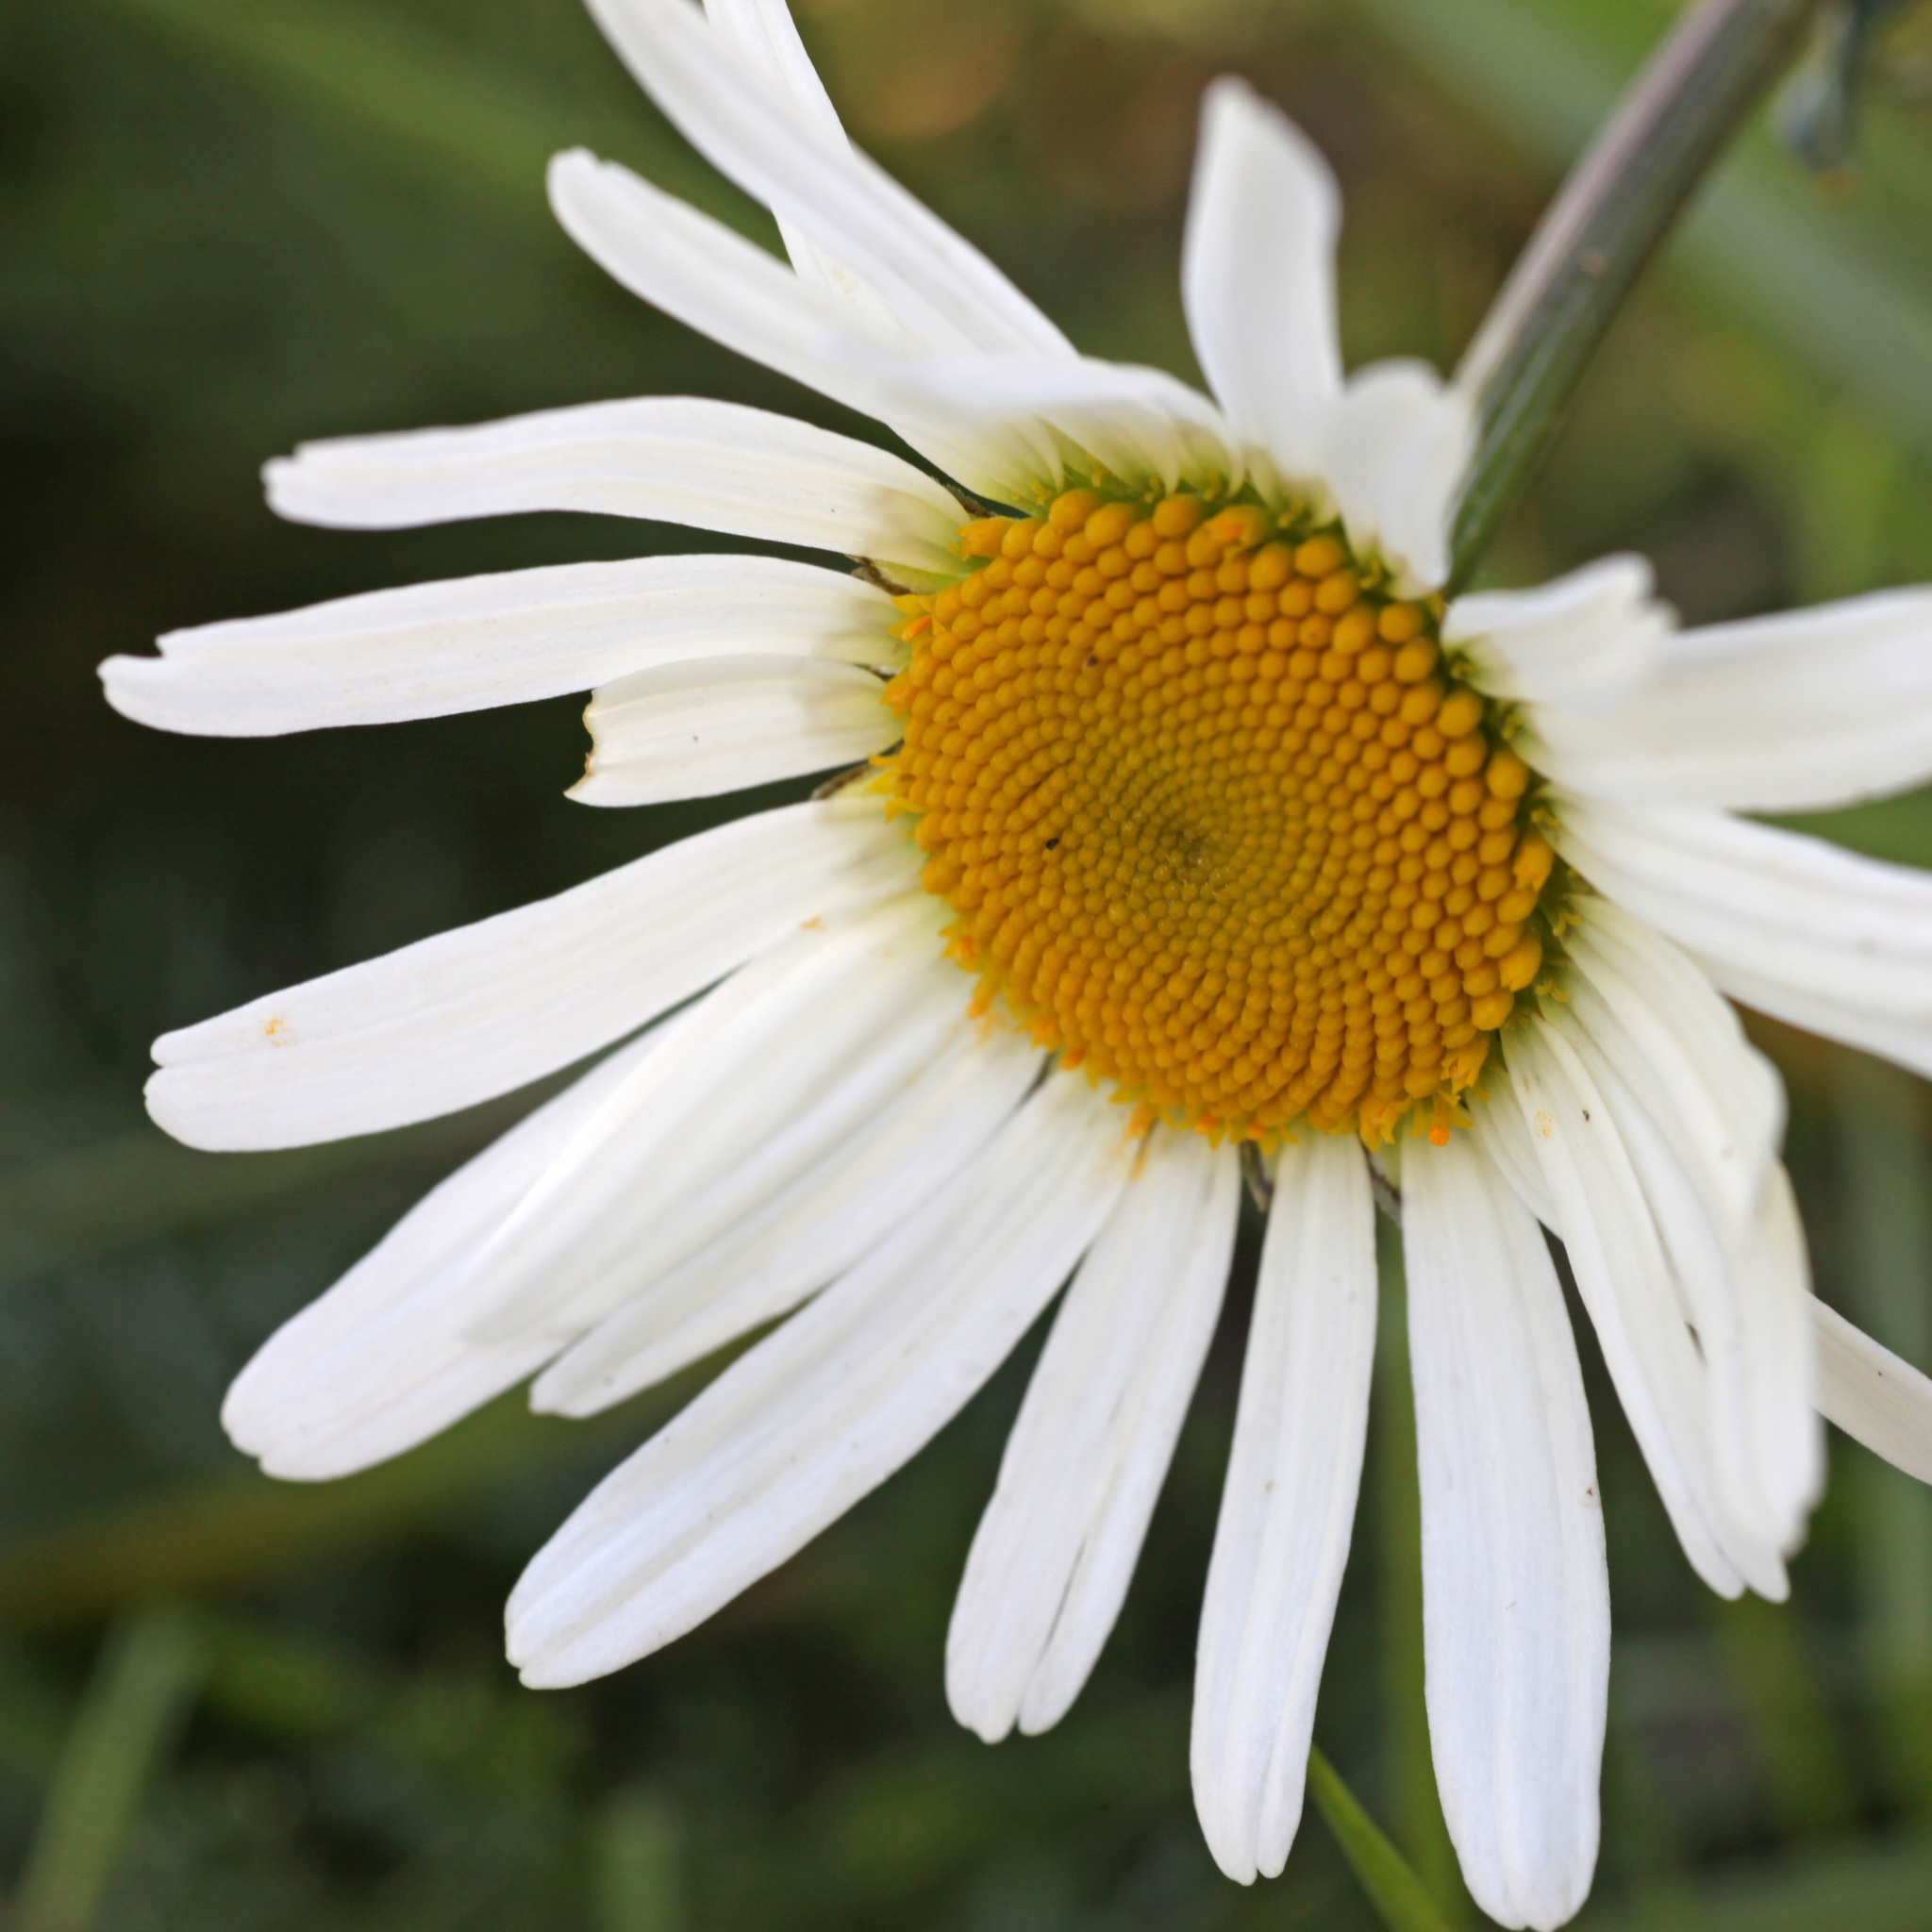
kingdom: Plantae
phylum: Tracheophyta
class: Magnoliopsida
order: Asterales
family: Asteraceae
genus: Leucanthemum
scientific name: Leucanthemum vulgare
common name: Oxeye daisy
